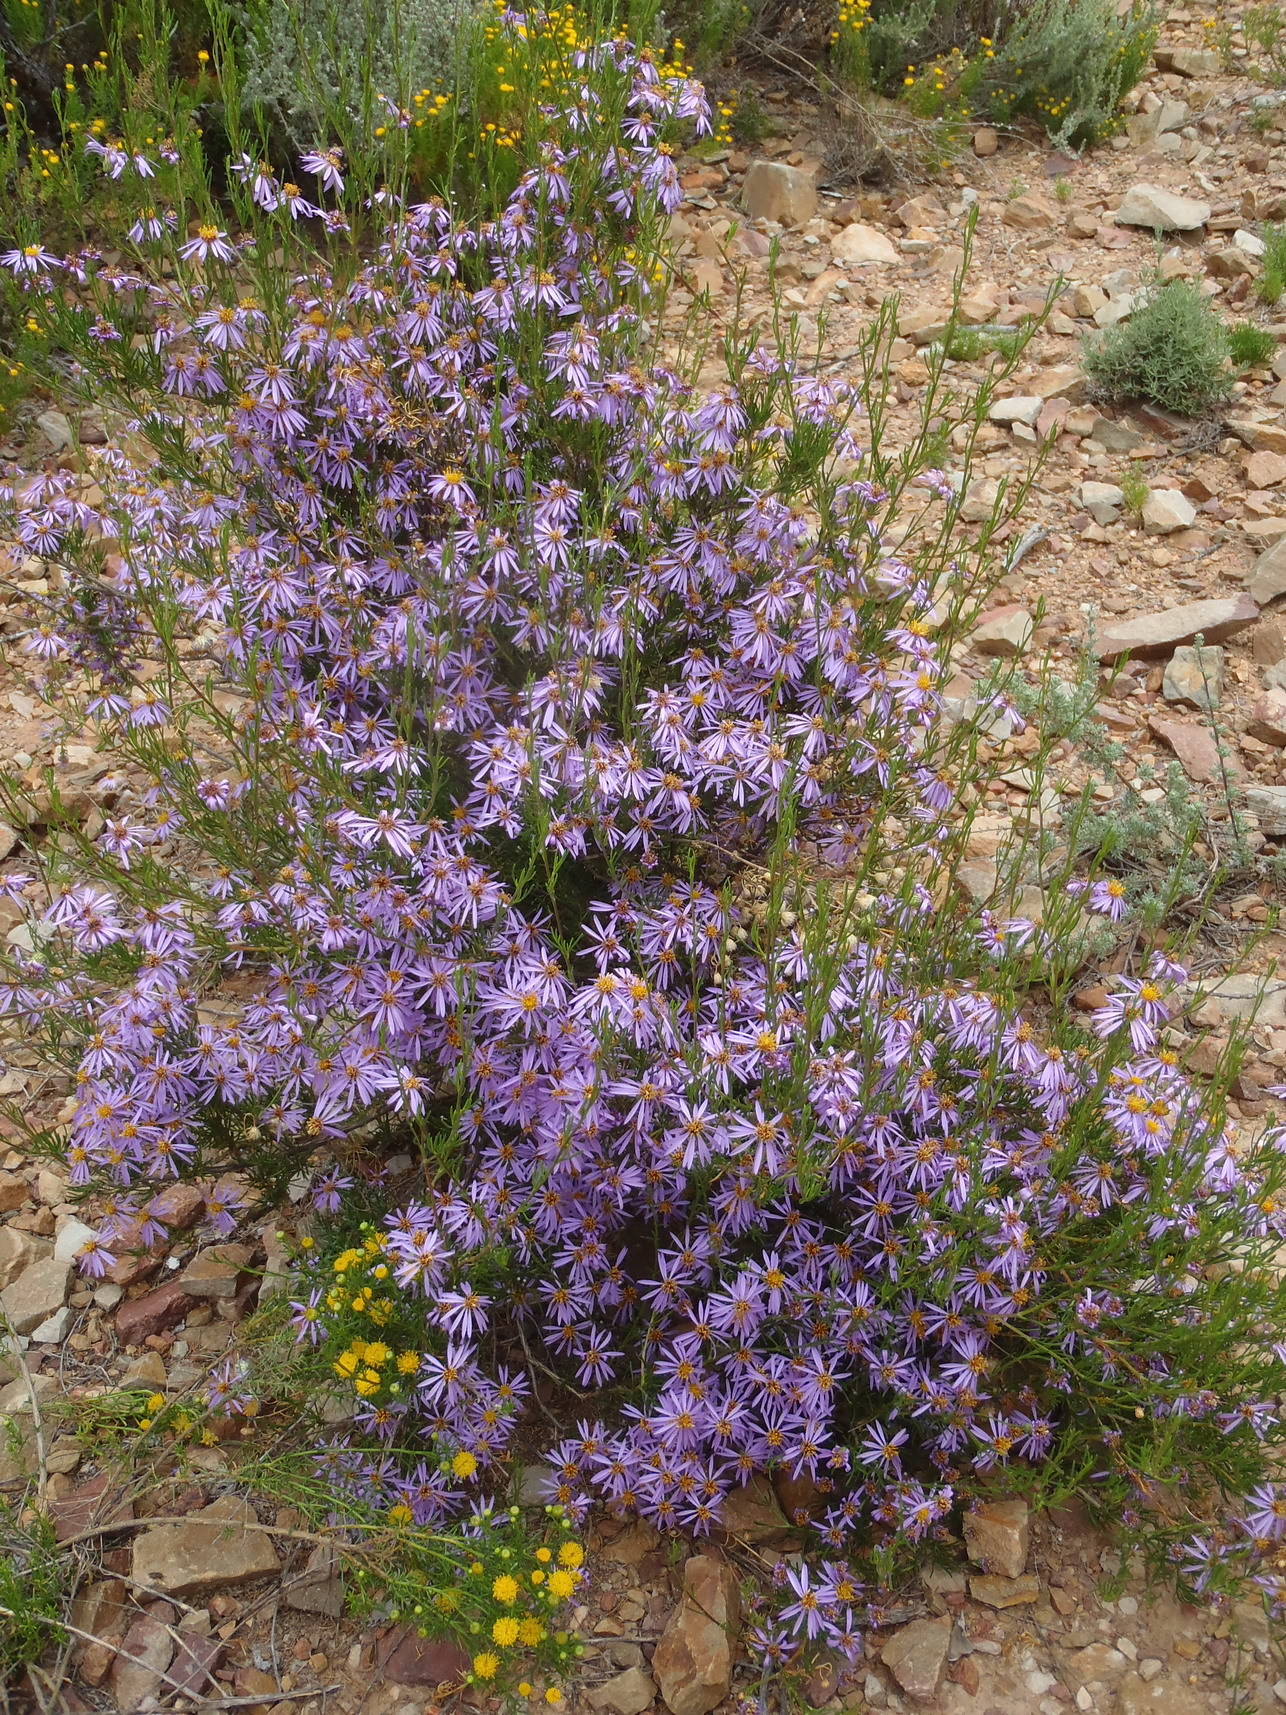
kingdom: Plantae
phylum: Tracheophyta
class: Magnoliopsida
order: Asterales
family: Asteraceae
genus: Felicia
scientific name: Felicia filifolia
